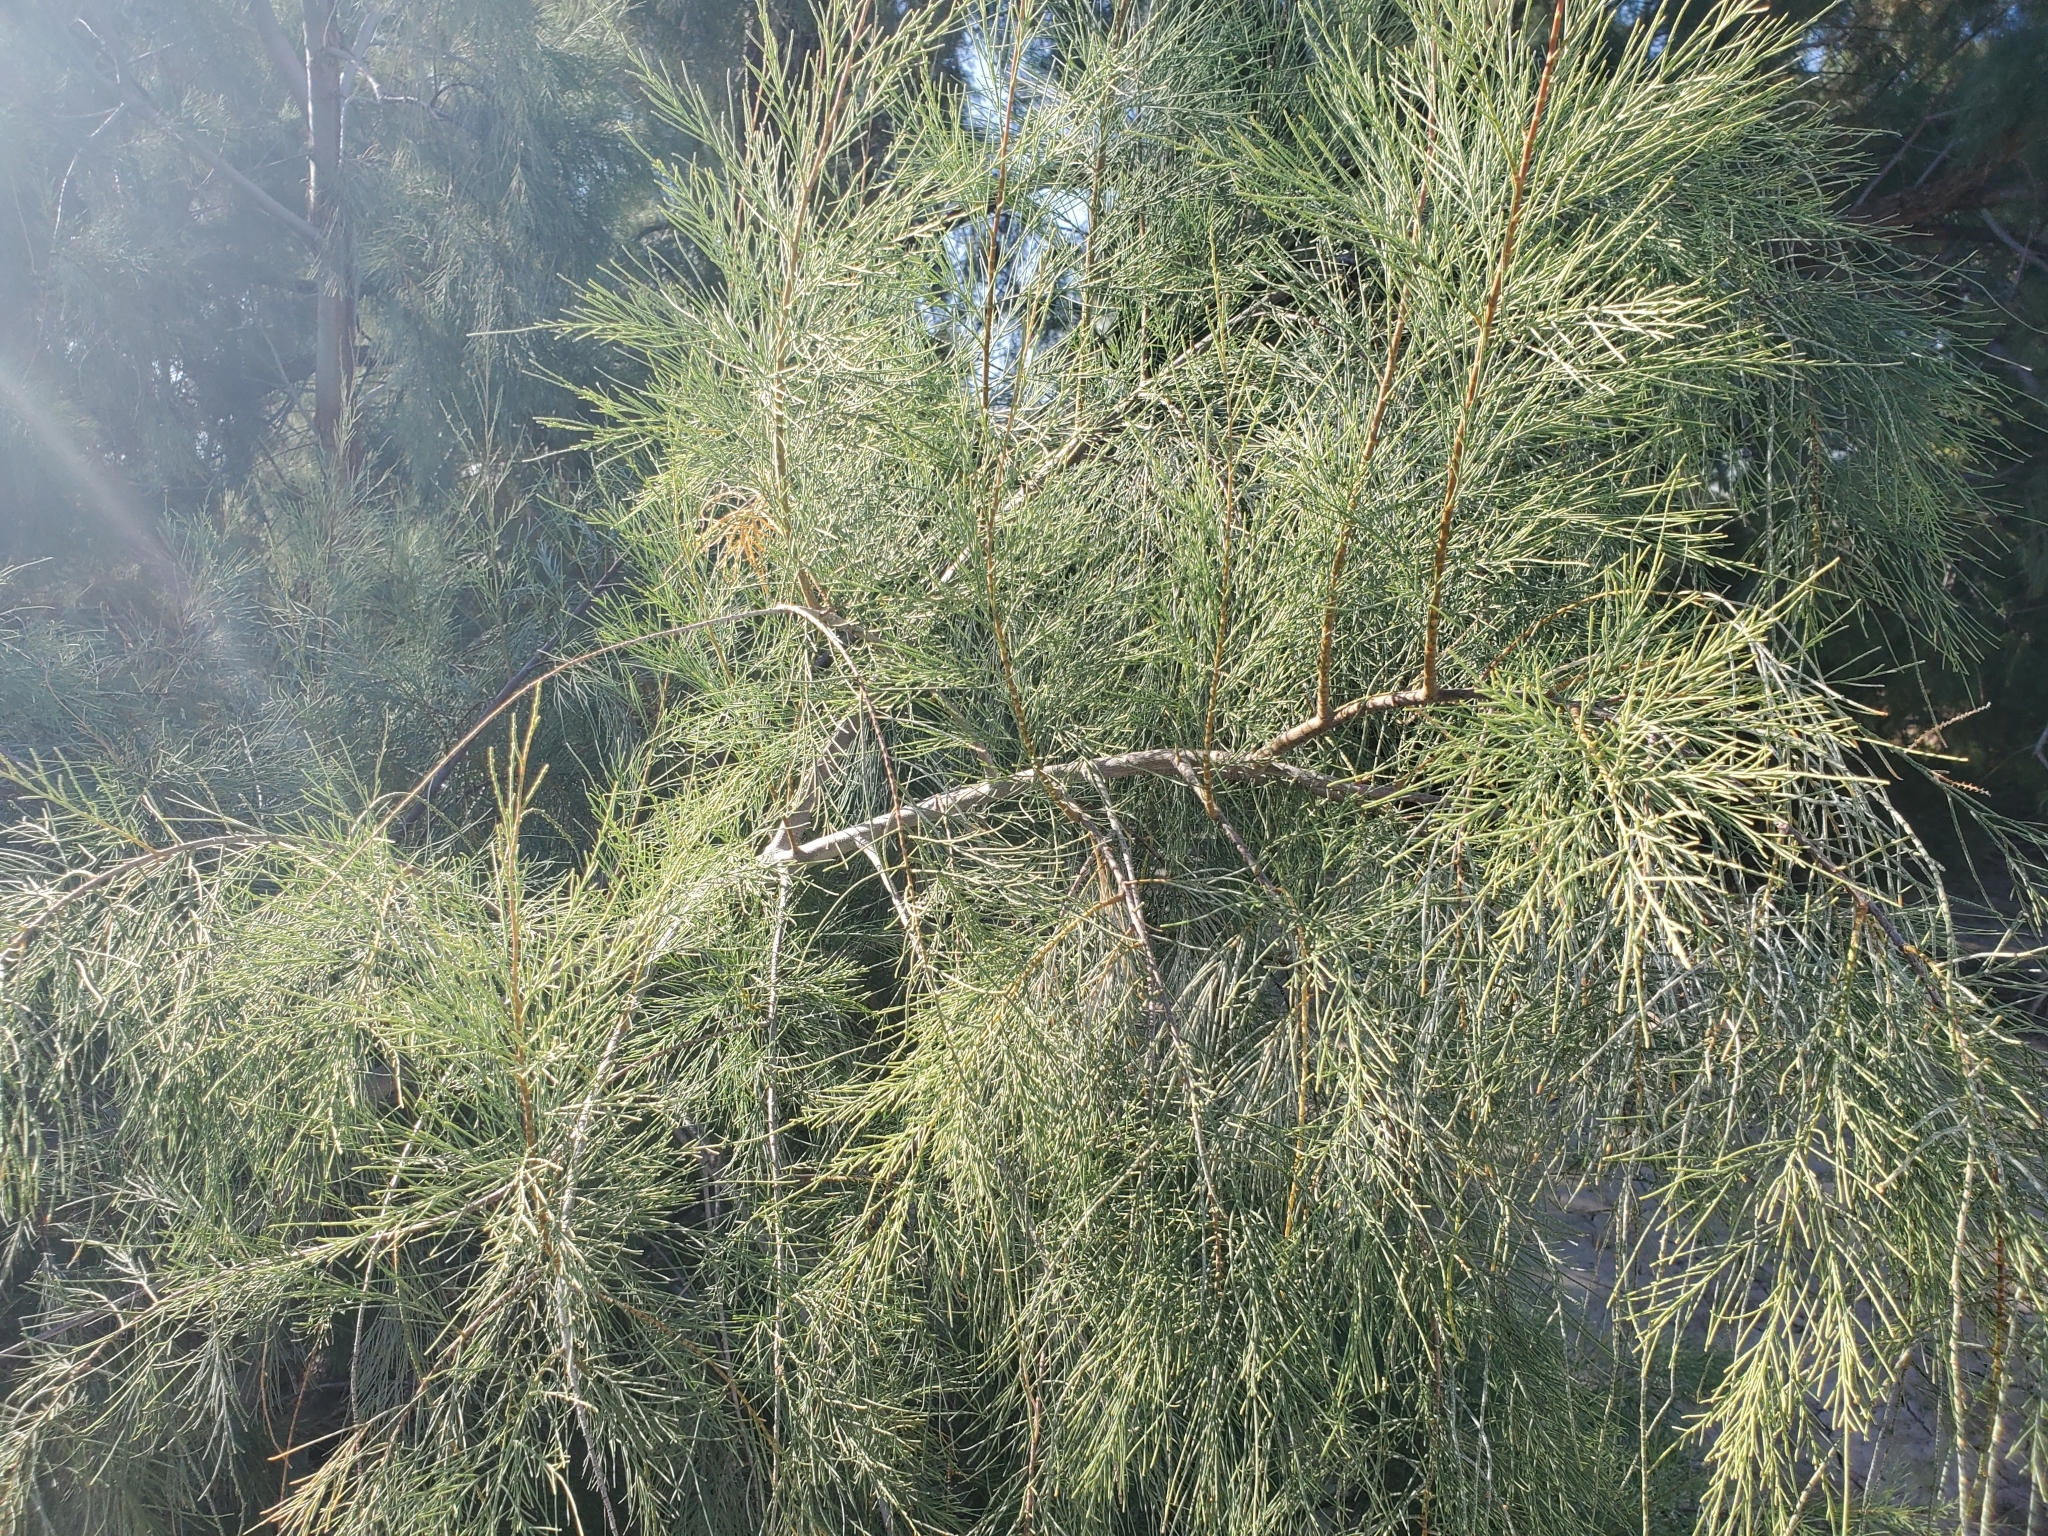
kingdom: Plantae
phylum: Tracheophyta
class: Magnoliopsida
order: Caryophyllales
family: Tamaricaceae
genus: Tamarix
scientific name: Tamarix aphylla
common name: Athel tamarisk
